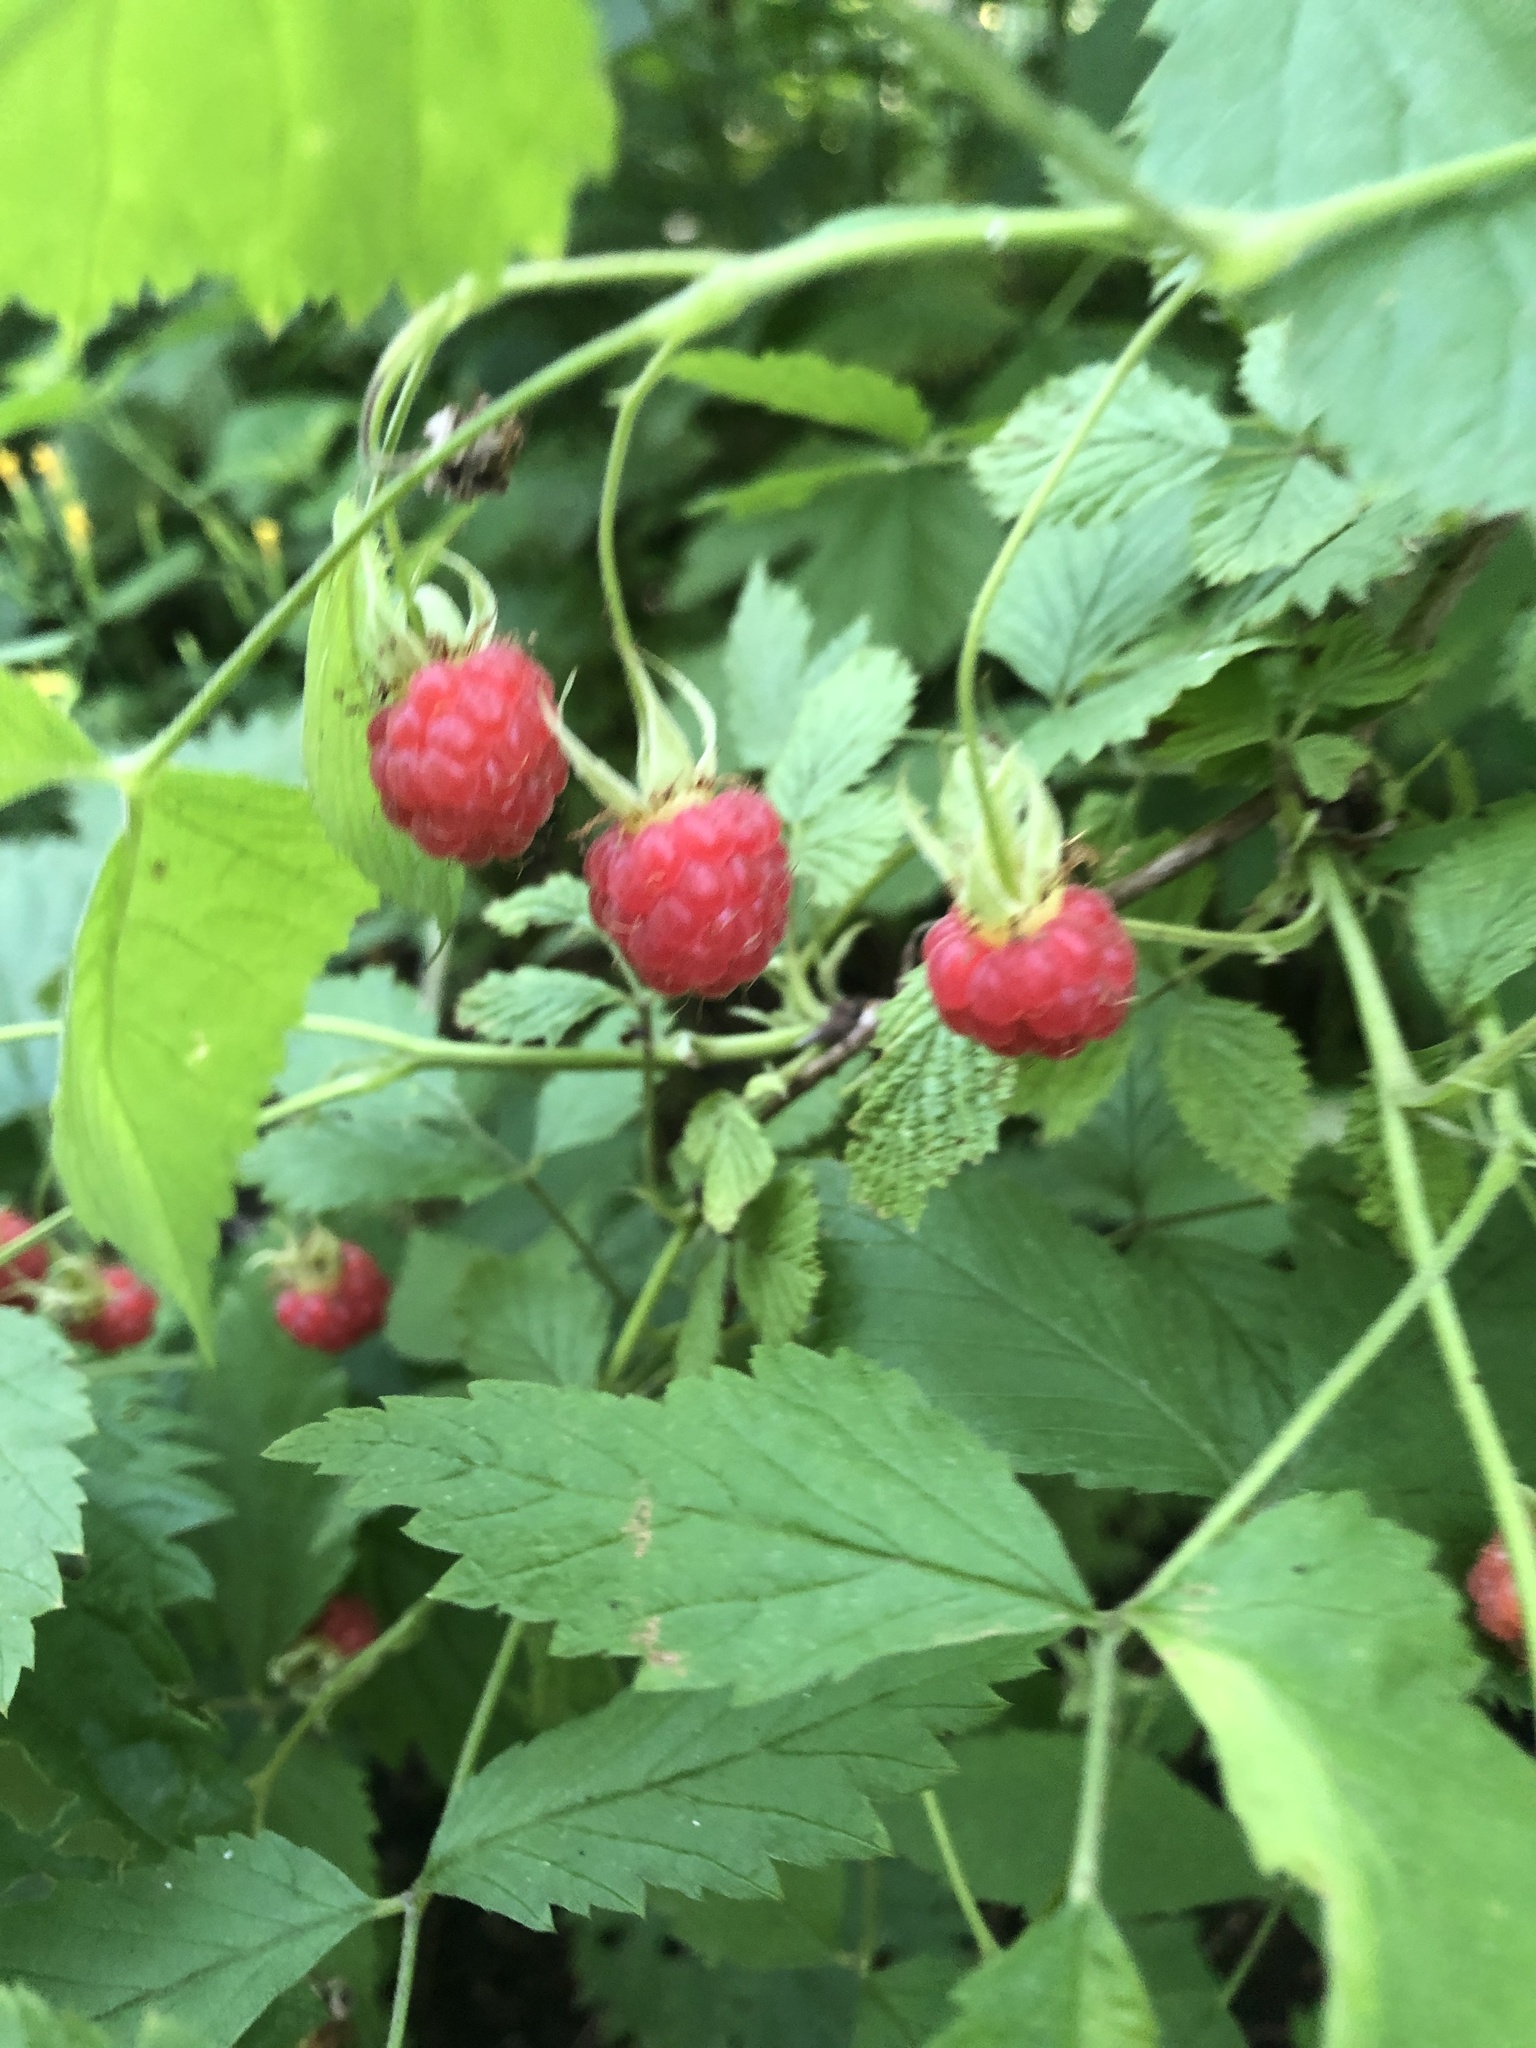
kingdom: Plantae
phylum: Tracheophyta
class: Magnoliopsida
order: Rosales
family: Rosaceae
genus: Rubus
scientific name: Rubus idaeus
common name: Raspberry
